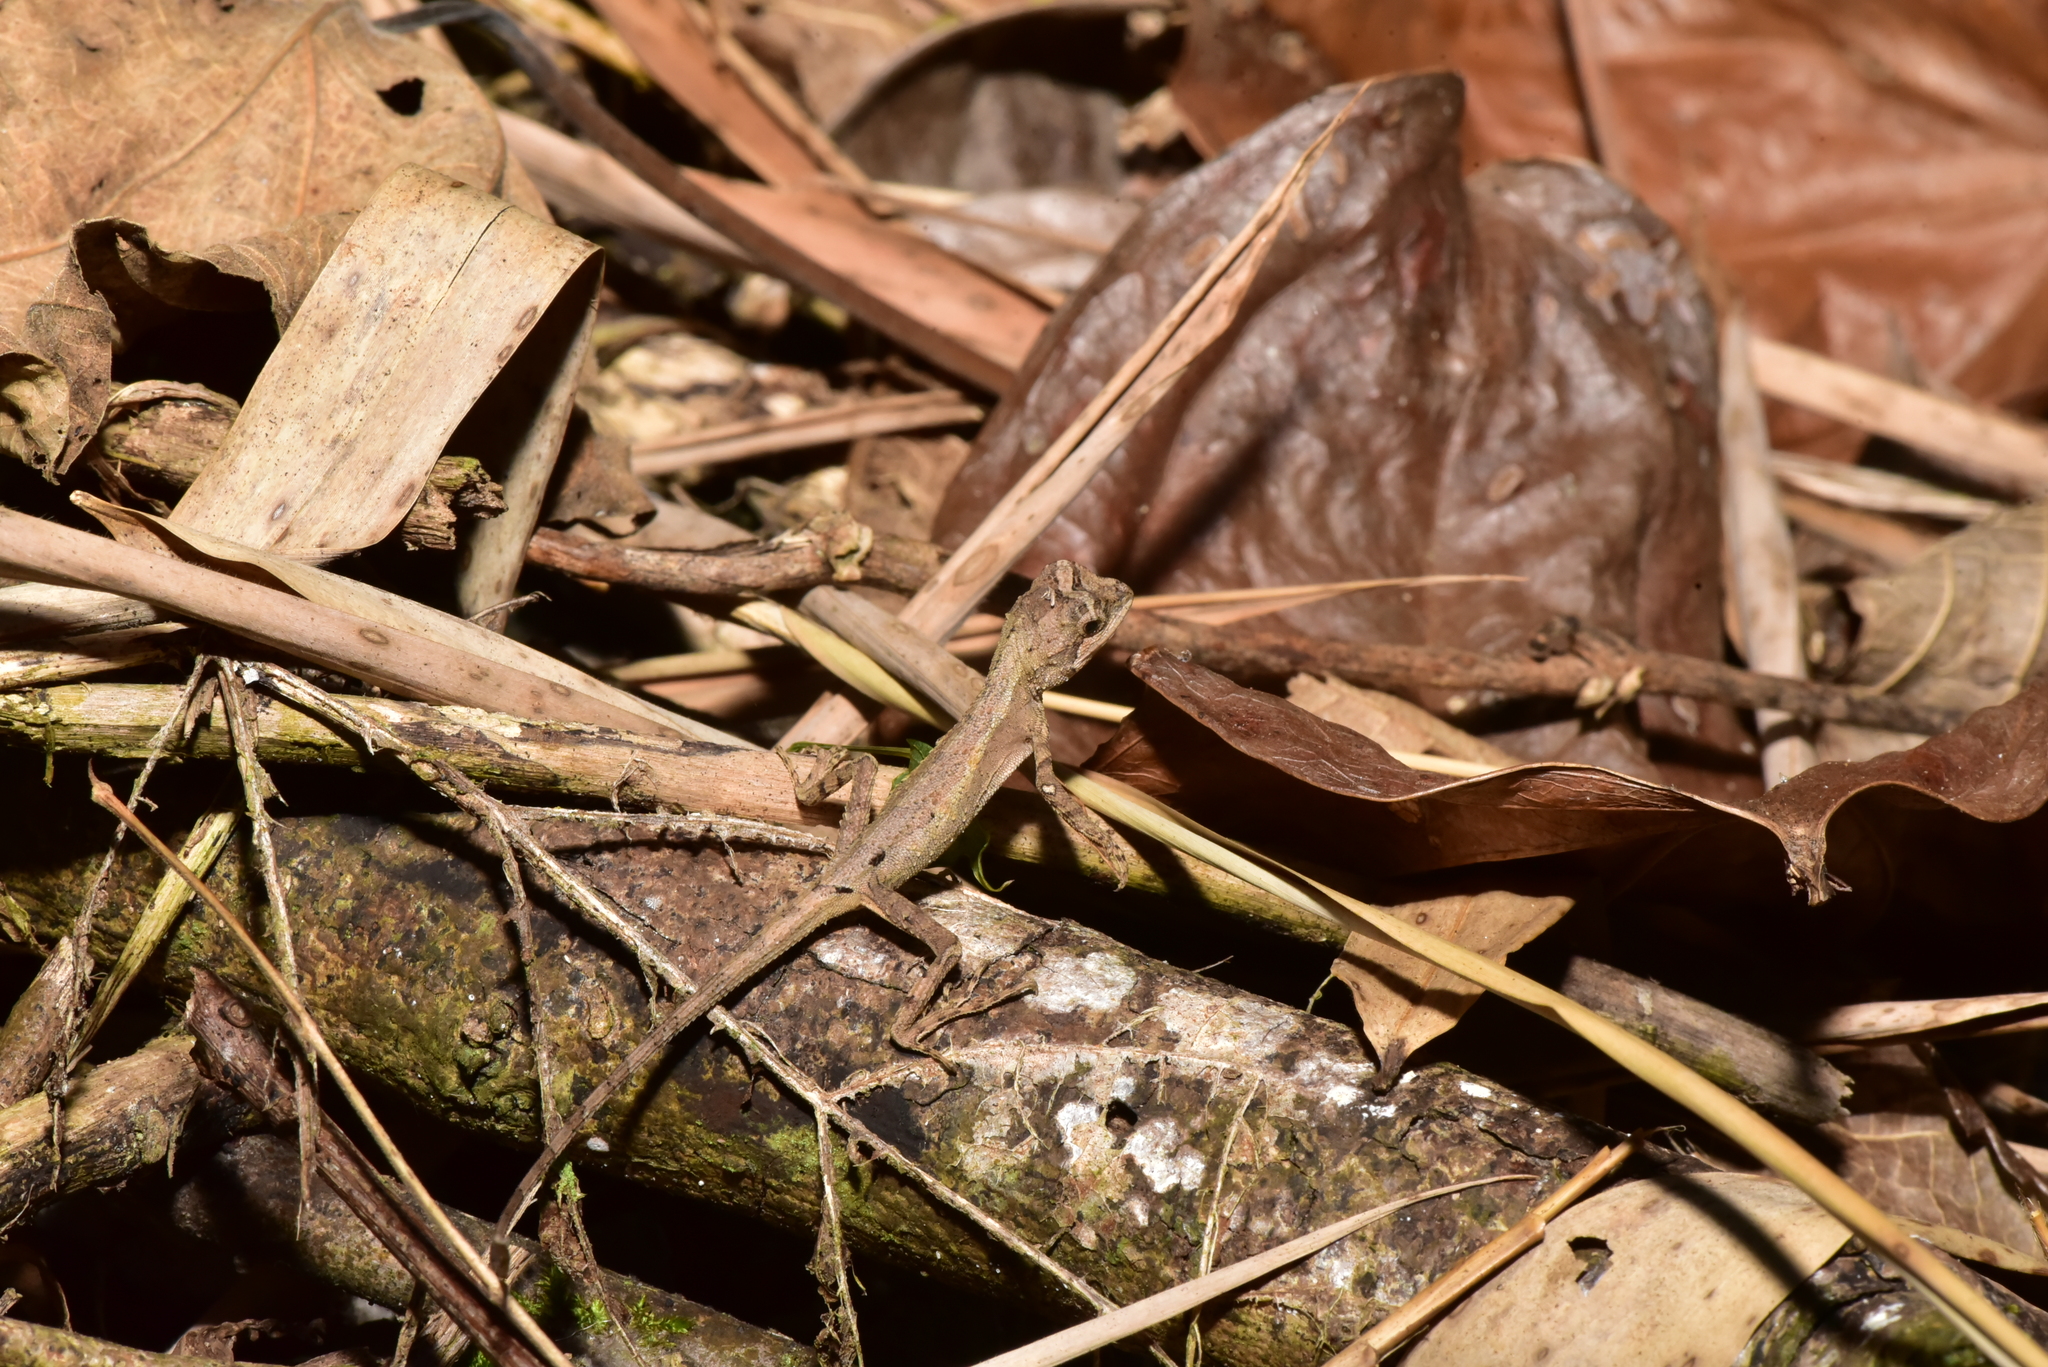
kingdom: Animalia
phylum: Chordata
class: Squamata
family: Agamidae
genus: Diploderma
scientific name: Diploderma swinhonis
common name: Taiwan japalure
